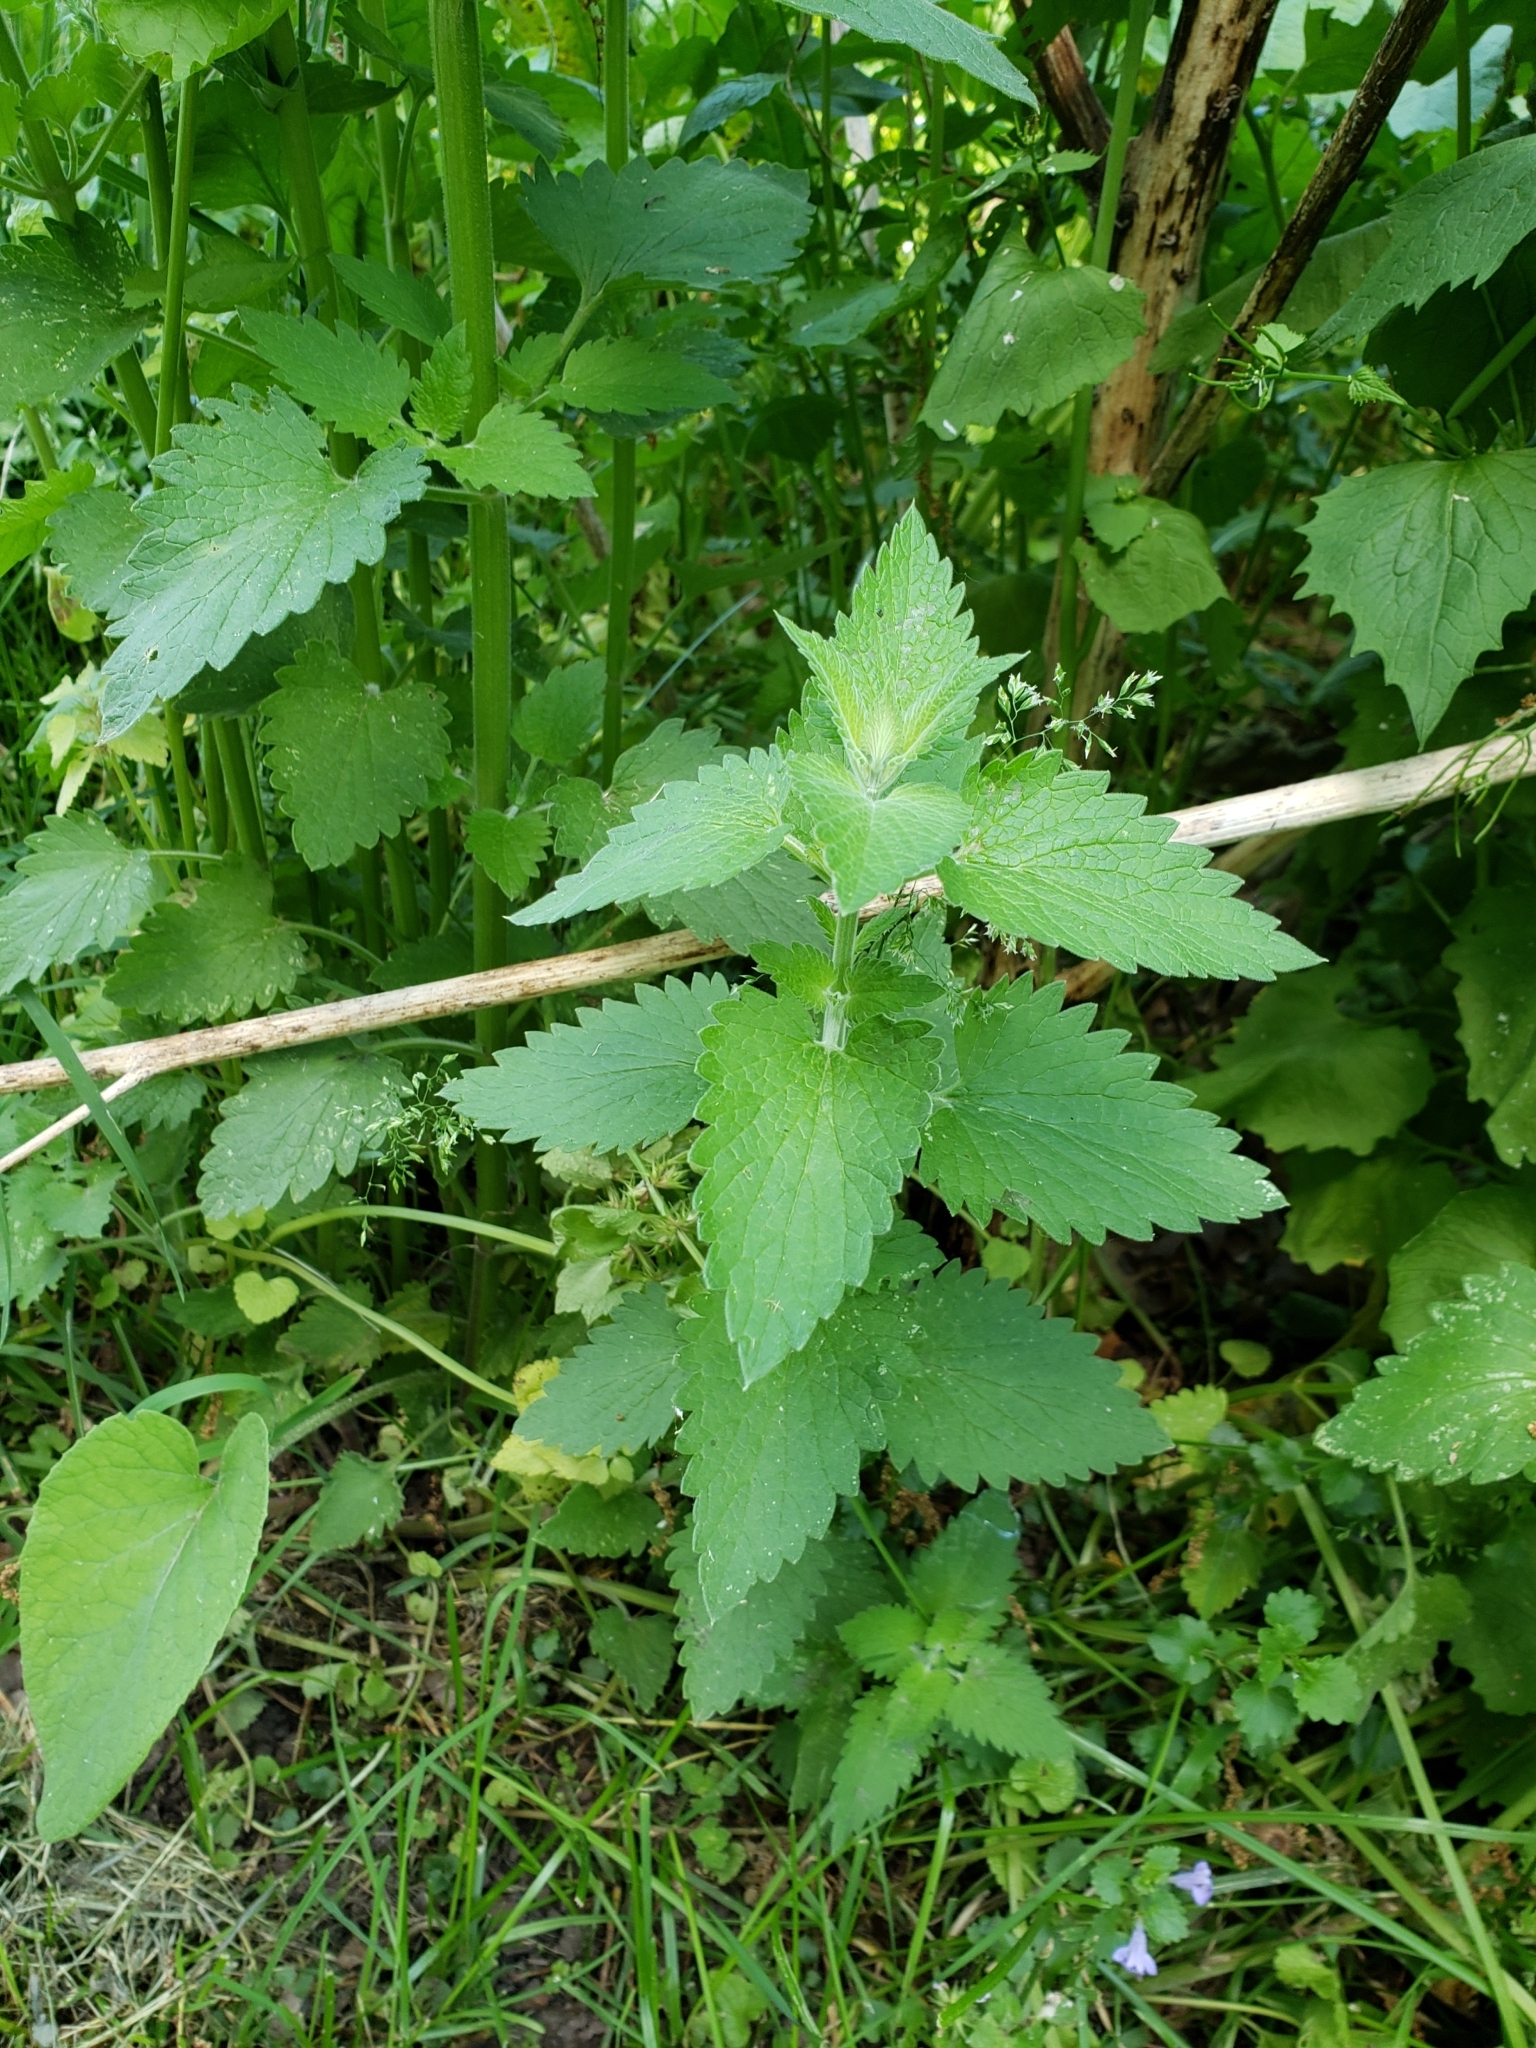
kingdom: Plantae
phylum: Tracheophyta
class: Magnoliopsida
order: Lamiales
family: Lamiaceae
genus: Nepeta
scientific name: Nepeta cataria
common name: Catnip
